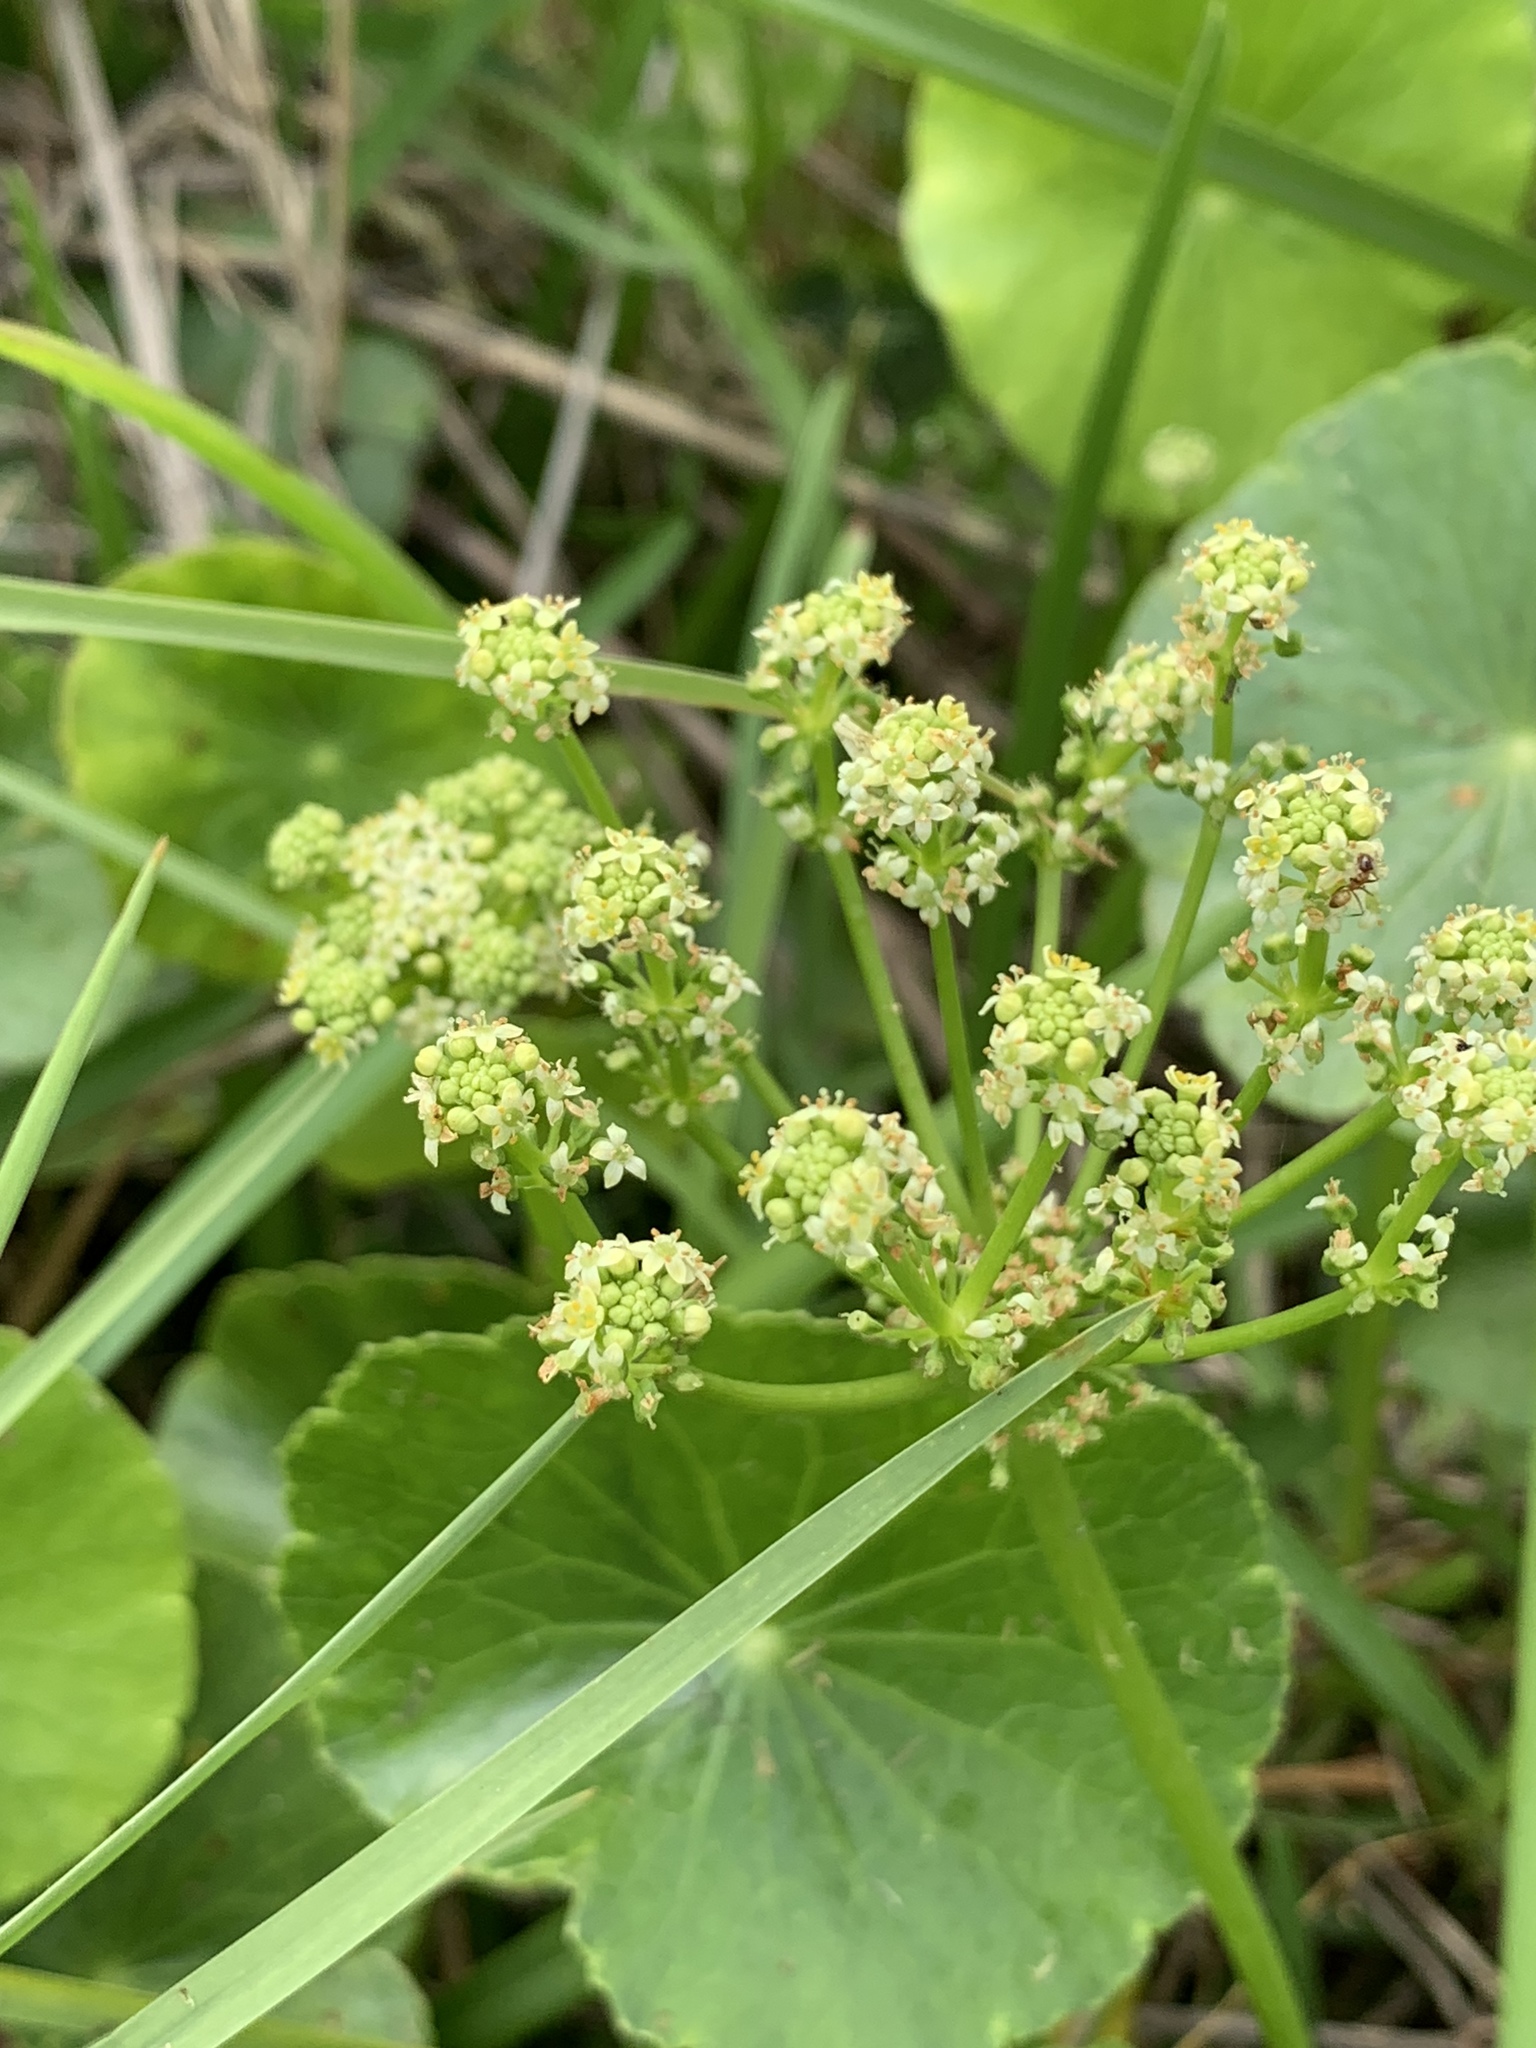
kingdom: Plantae
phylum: Tracheophyta
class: Magnoliopsida
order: Apiales
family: Araliaceae
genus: Hydrocotyle
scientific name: Hydrocotyle bonariensis
